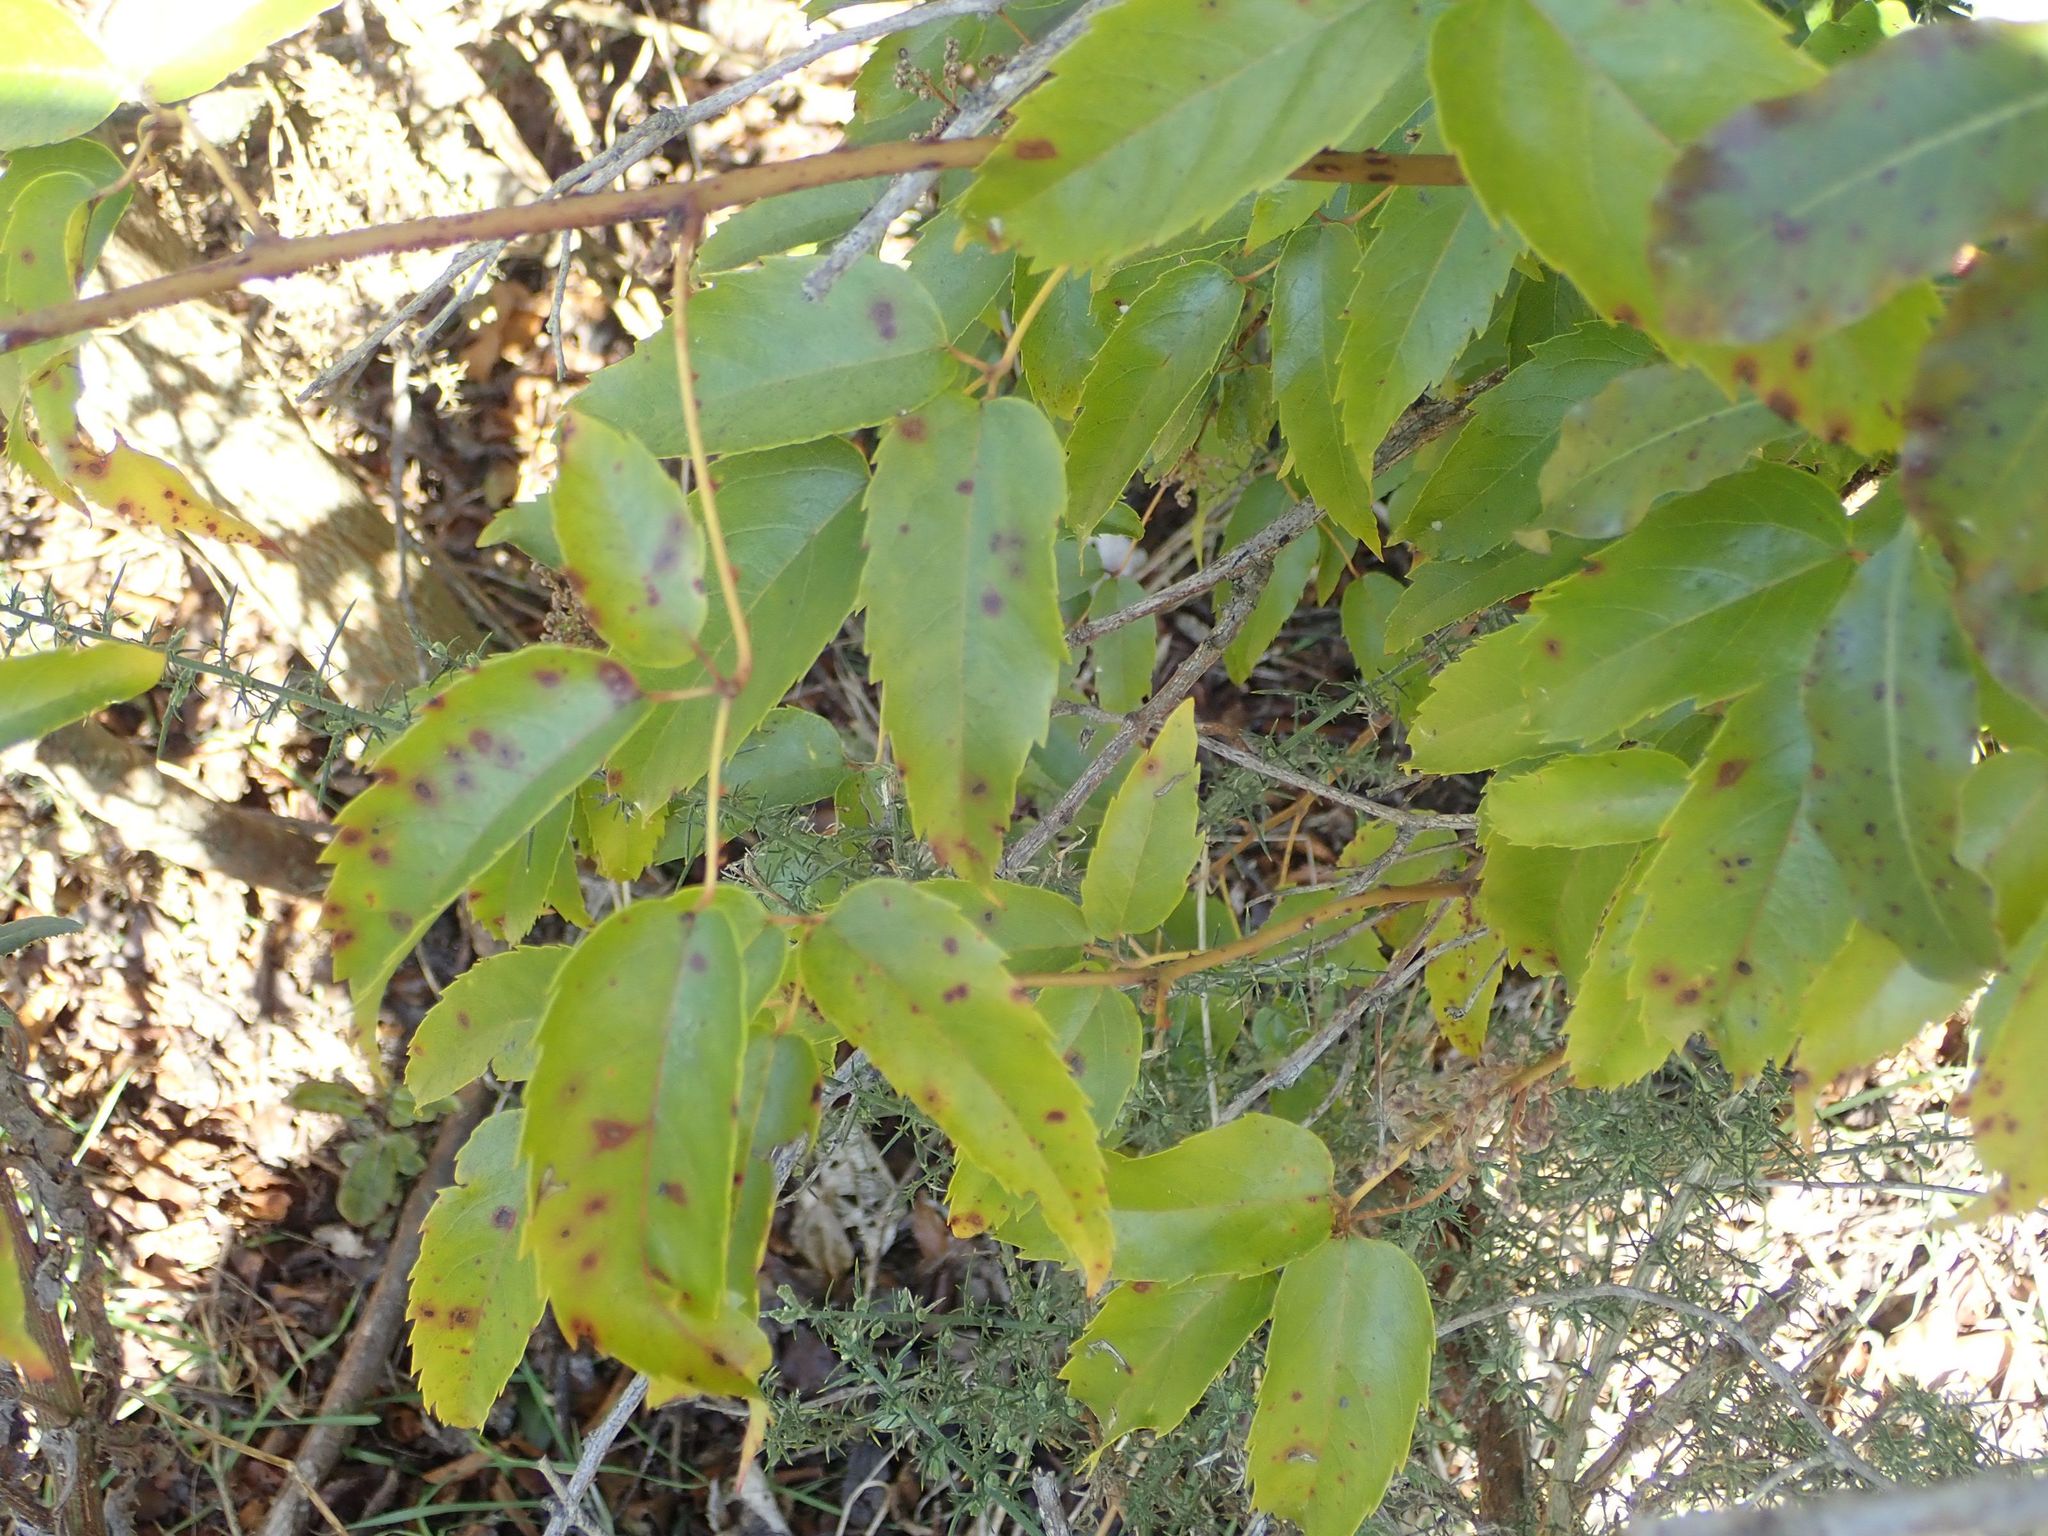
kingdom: Plantae
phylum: Tracheophyta
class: Magnoliopsida
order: Rosales
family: Rosaceae
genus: Rubus
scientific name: Rubus cissoides
